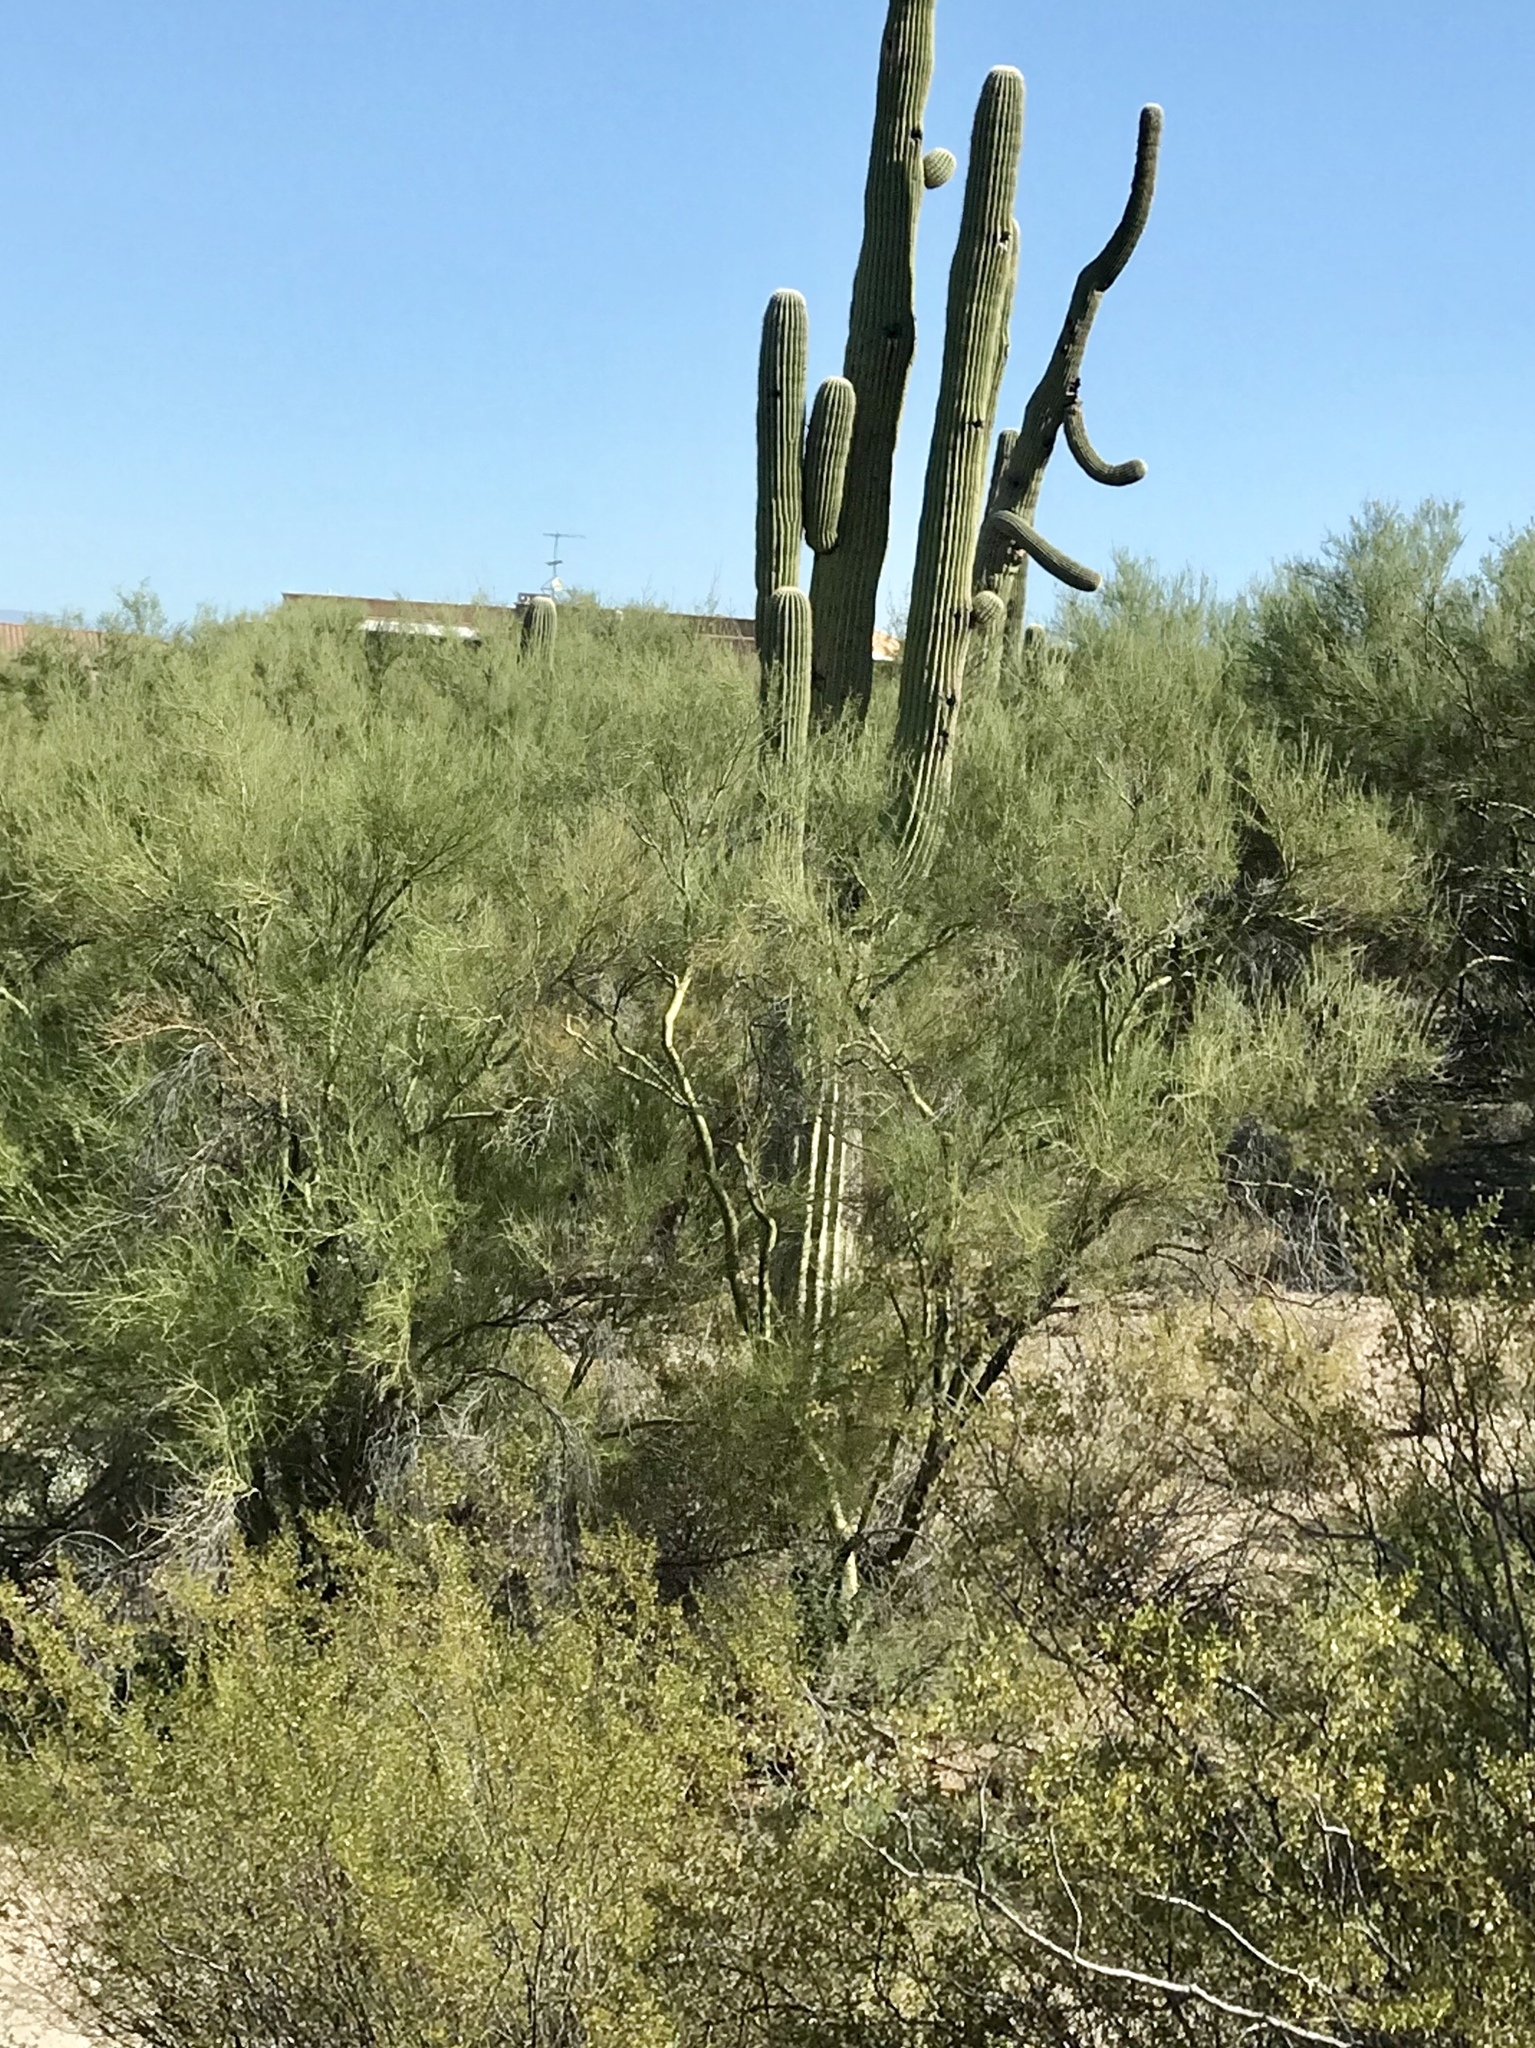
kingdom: Plantae
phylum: Tracheophyta
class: Magnoliopsida
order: Fabales
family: Fabaceae
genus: Parkinsonia
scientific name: Parkinsonia microphylla
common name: Yellow paloverde
